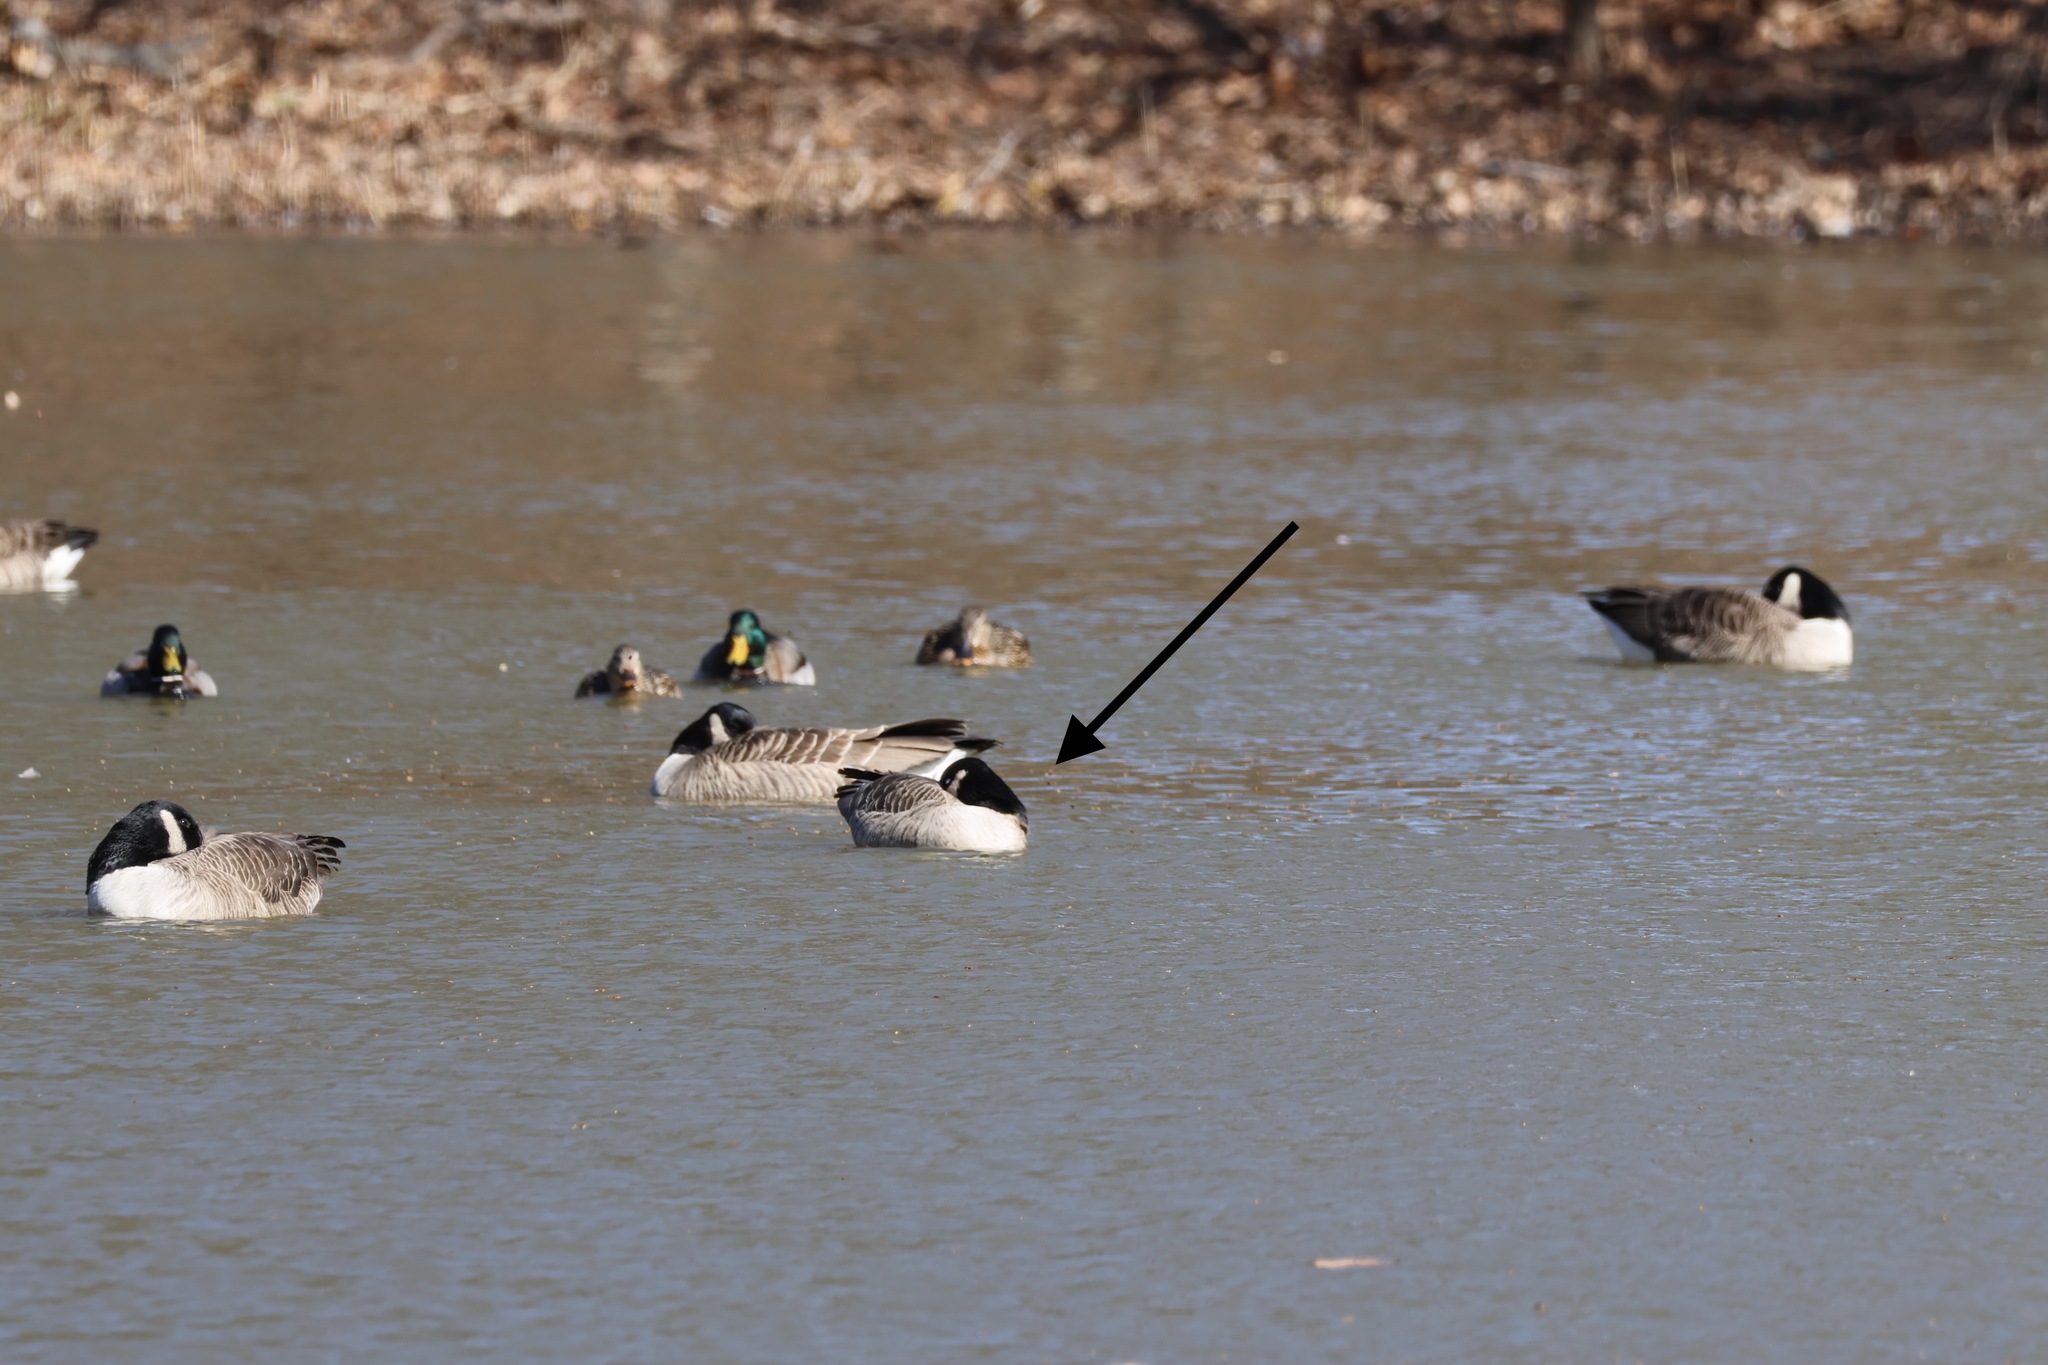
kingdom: Animalia
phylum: Chordata
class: Aves
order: Anseriformes
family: Anatidae
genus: Branta
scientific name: Branta hutchinsii
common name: Cackling goose
